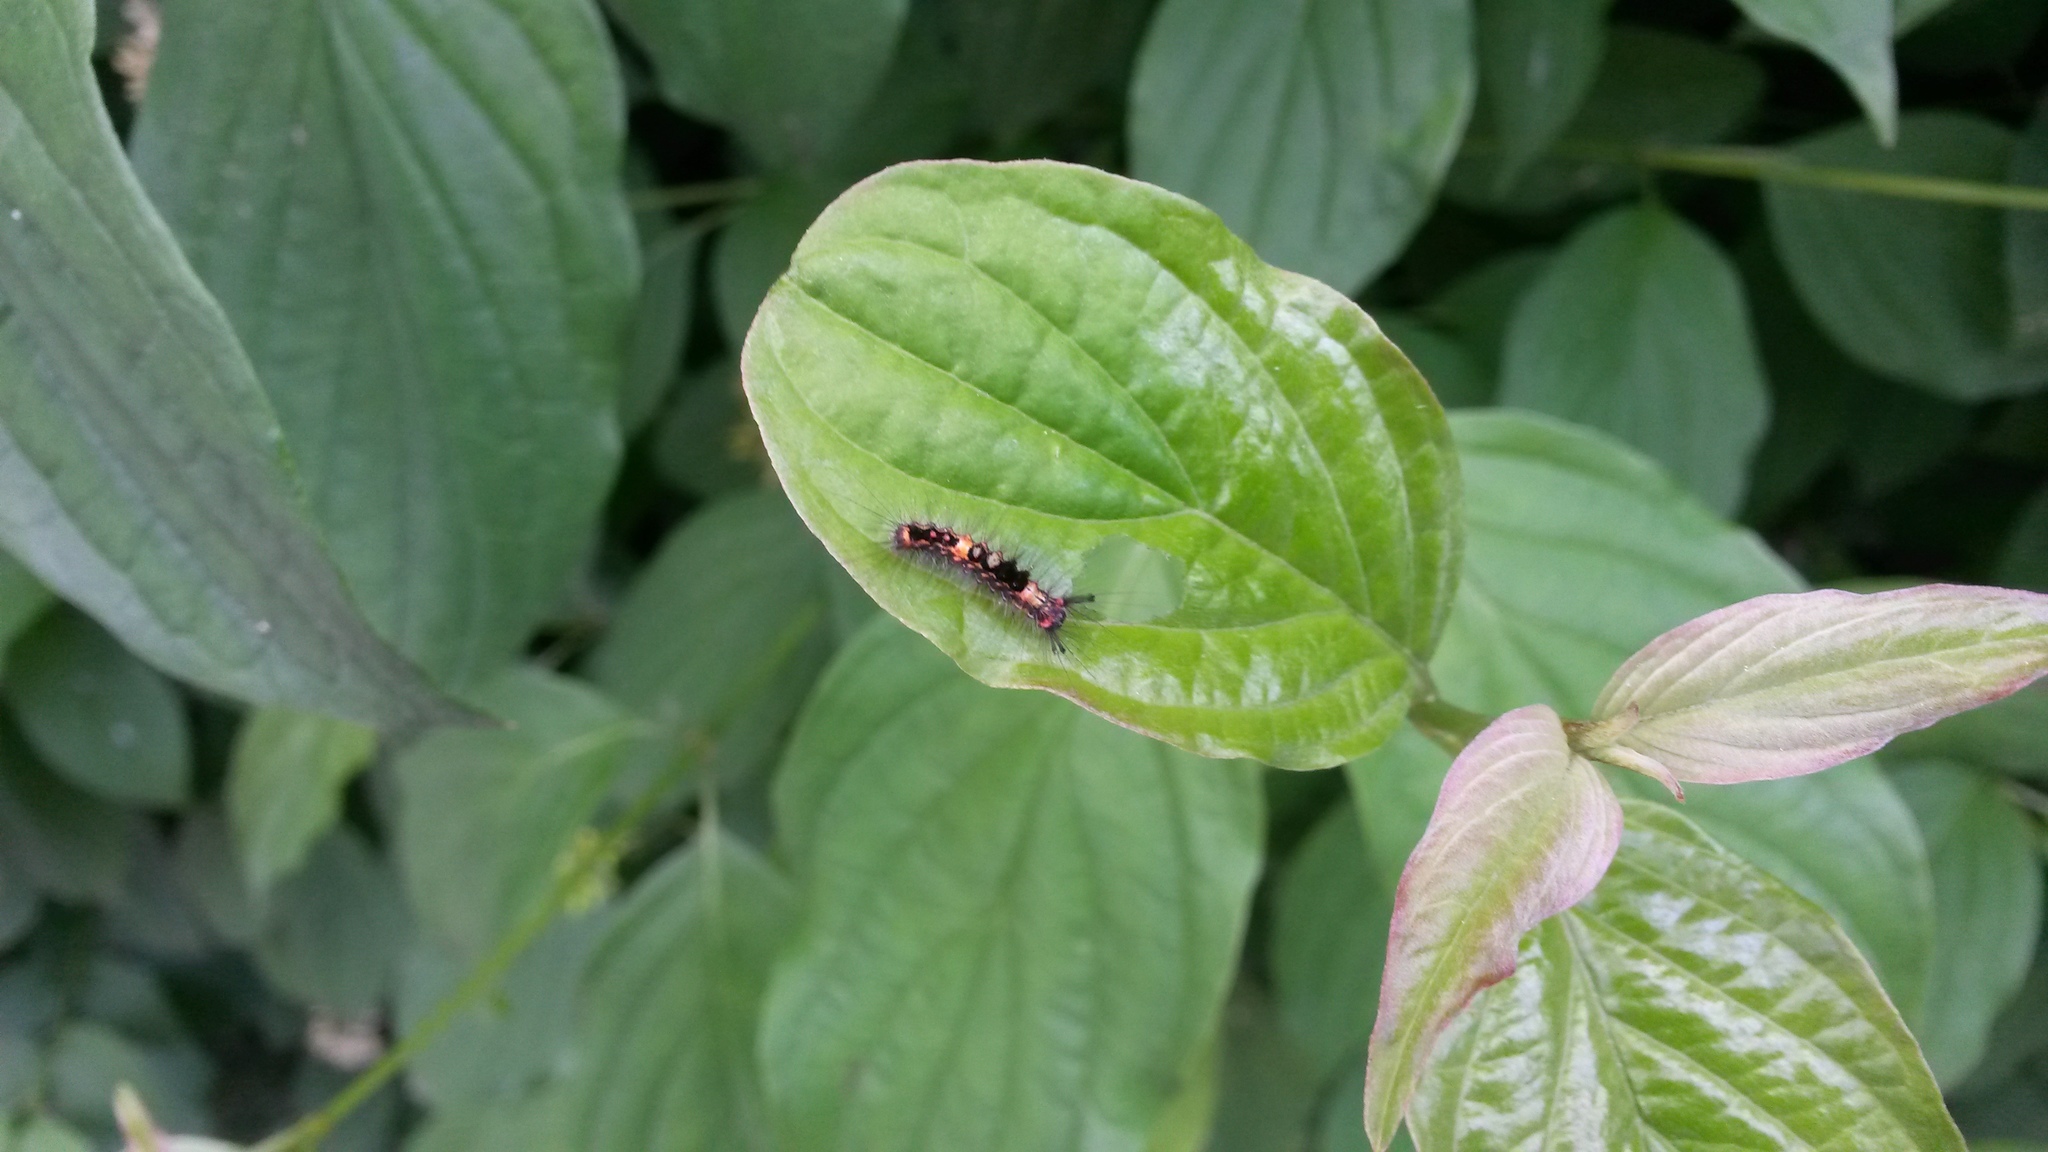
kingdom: Animalia
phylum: Arthropoda
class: Insecta
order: Lepidoptera
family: Erebidae
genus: Orgyia
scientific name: Orgyia antiqua
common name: Vapourer
